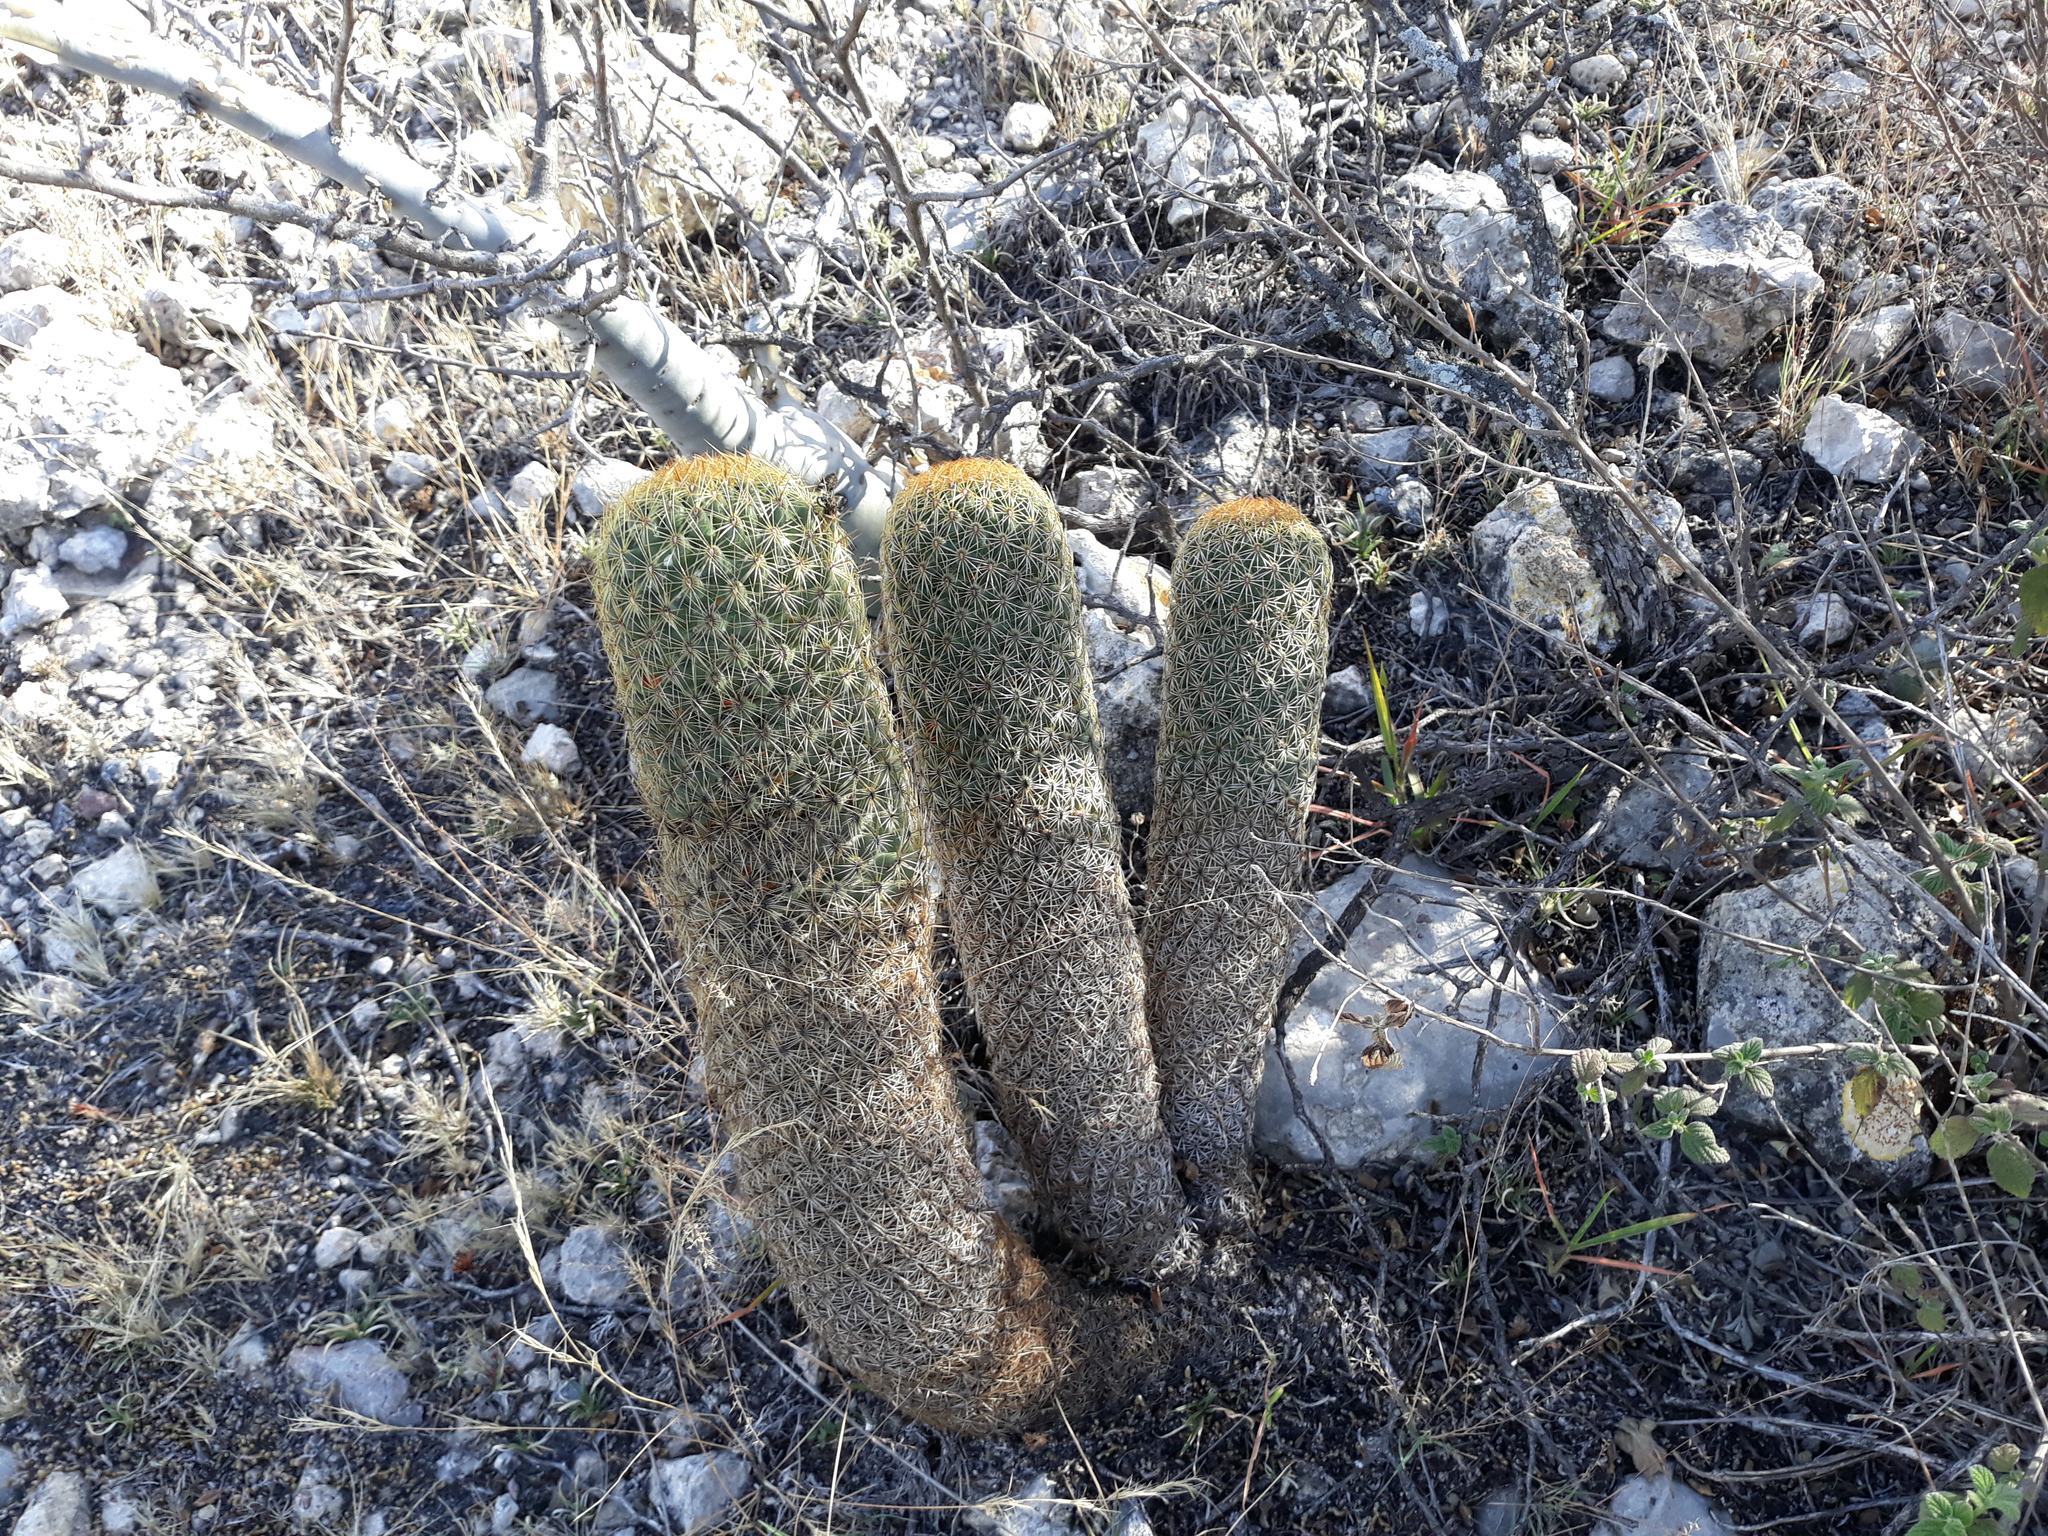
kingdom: Plantae
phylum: Tracheophyta
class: Magnoliopsida
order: Caryophyllales
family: Cactaceae
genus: Coryphantha
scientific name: Coryphantha erecta
